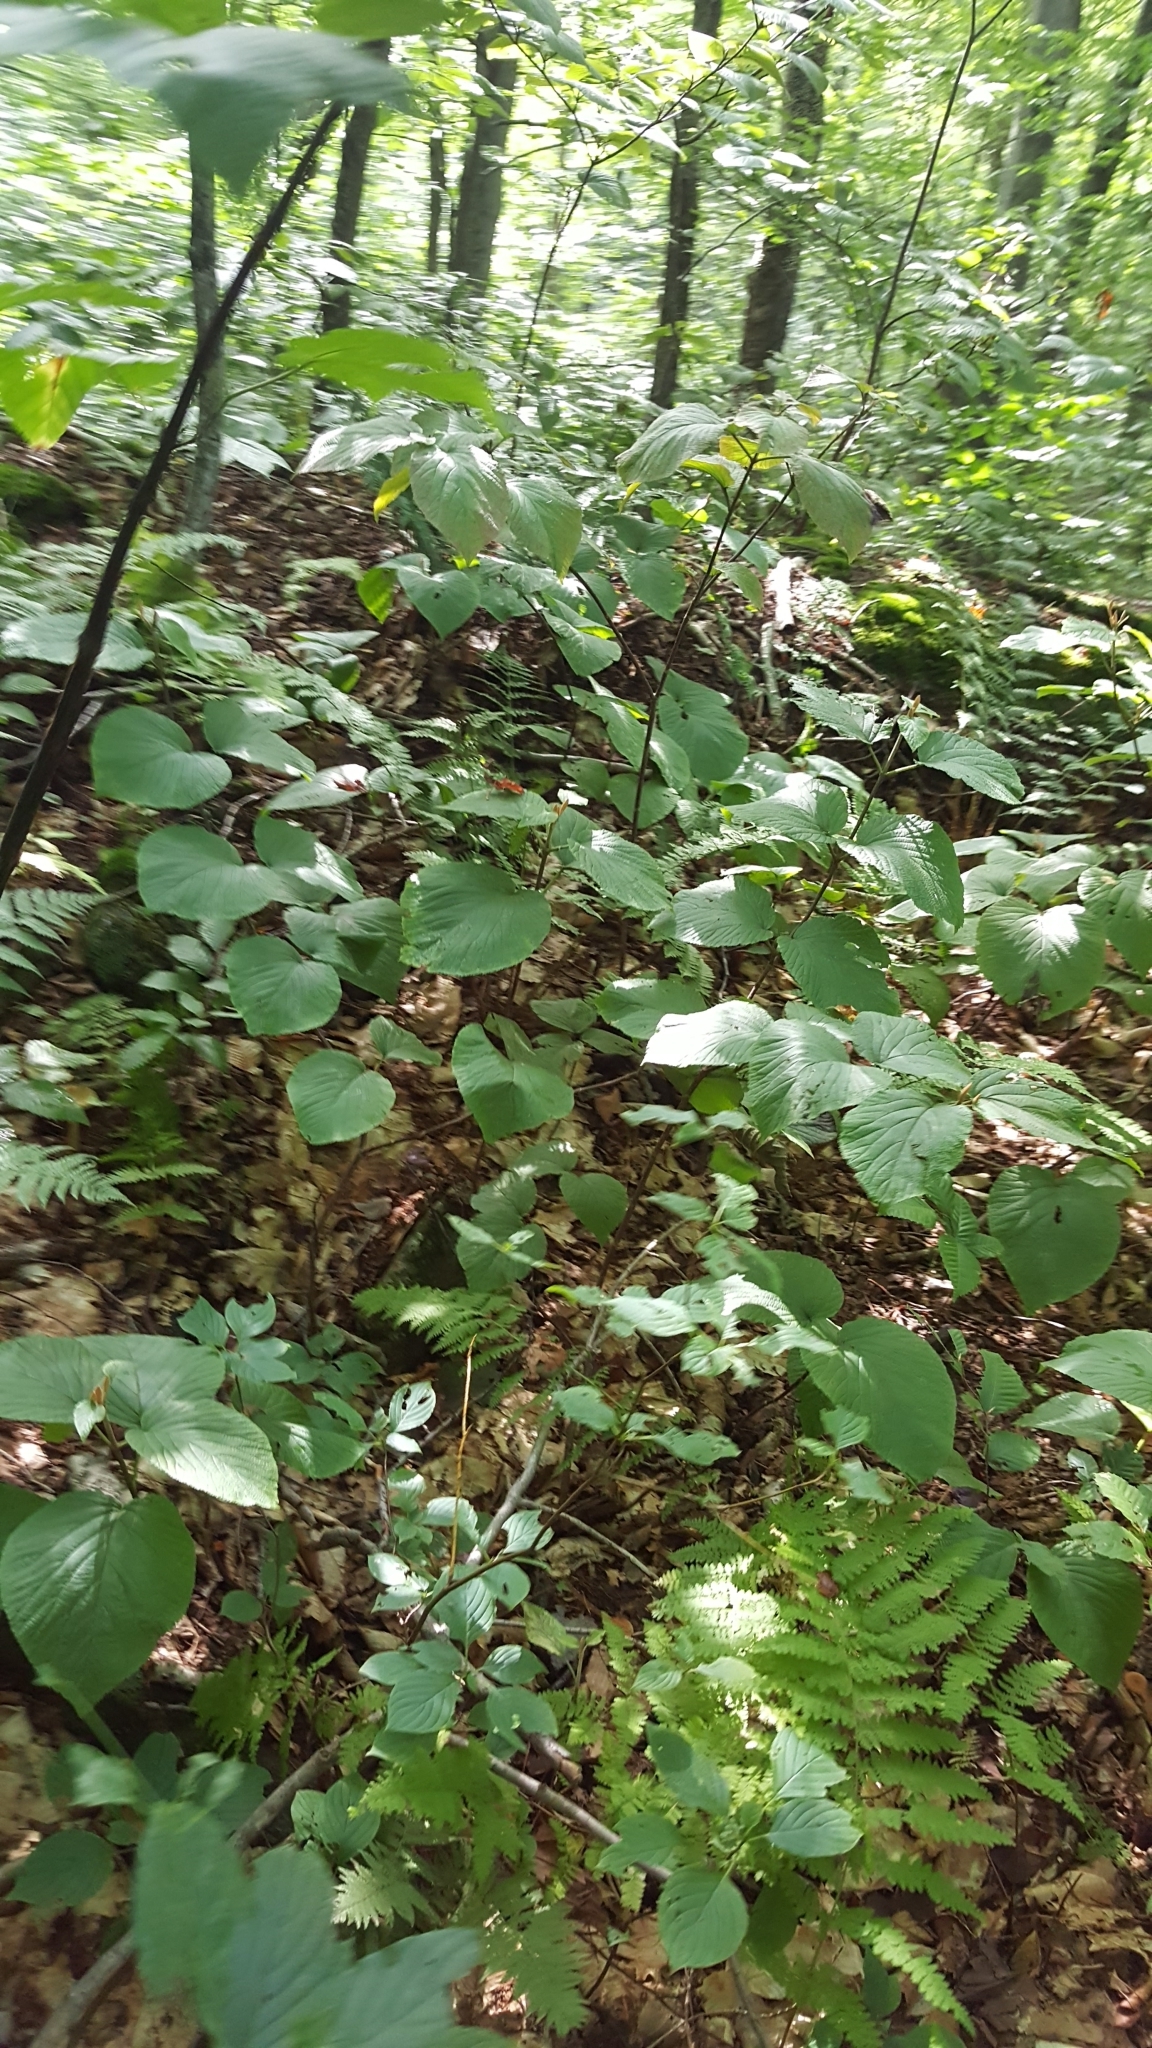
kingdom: Plantae
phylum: Tracheophyta
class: Magnoliopsida
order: Dipsacales
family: Viburnaceae
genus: Viburnum
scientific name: Viburnum lantanoides
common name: Hobblebush
